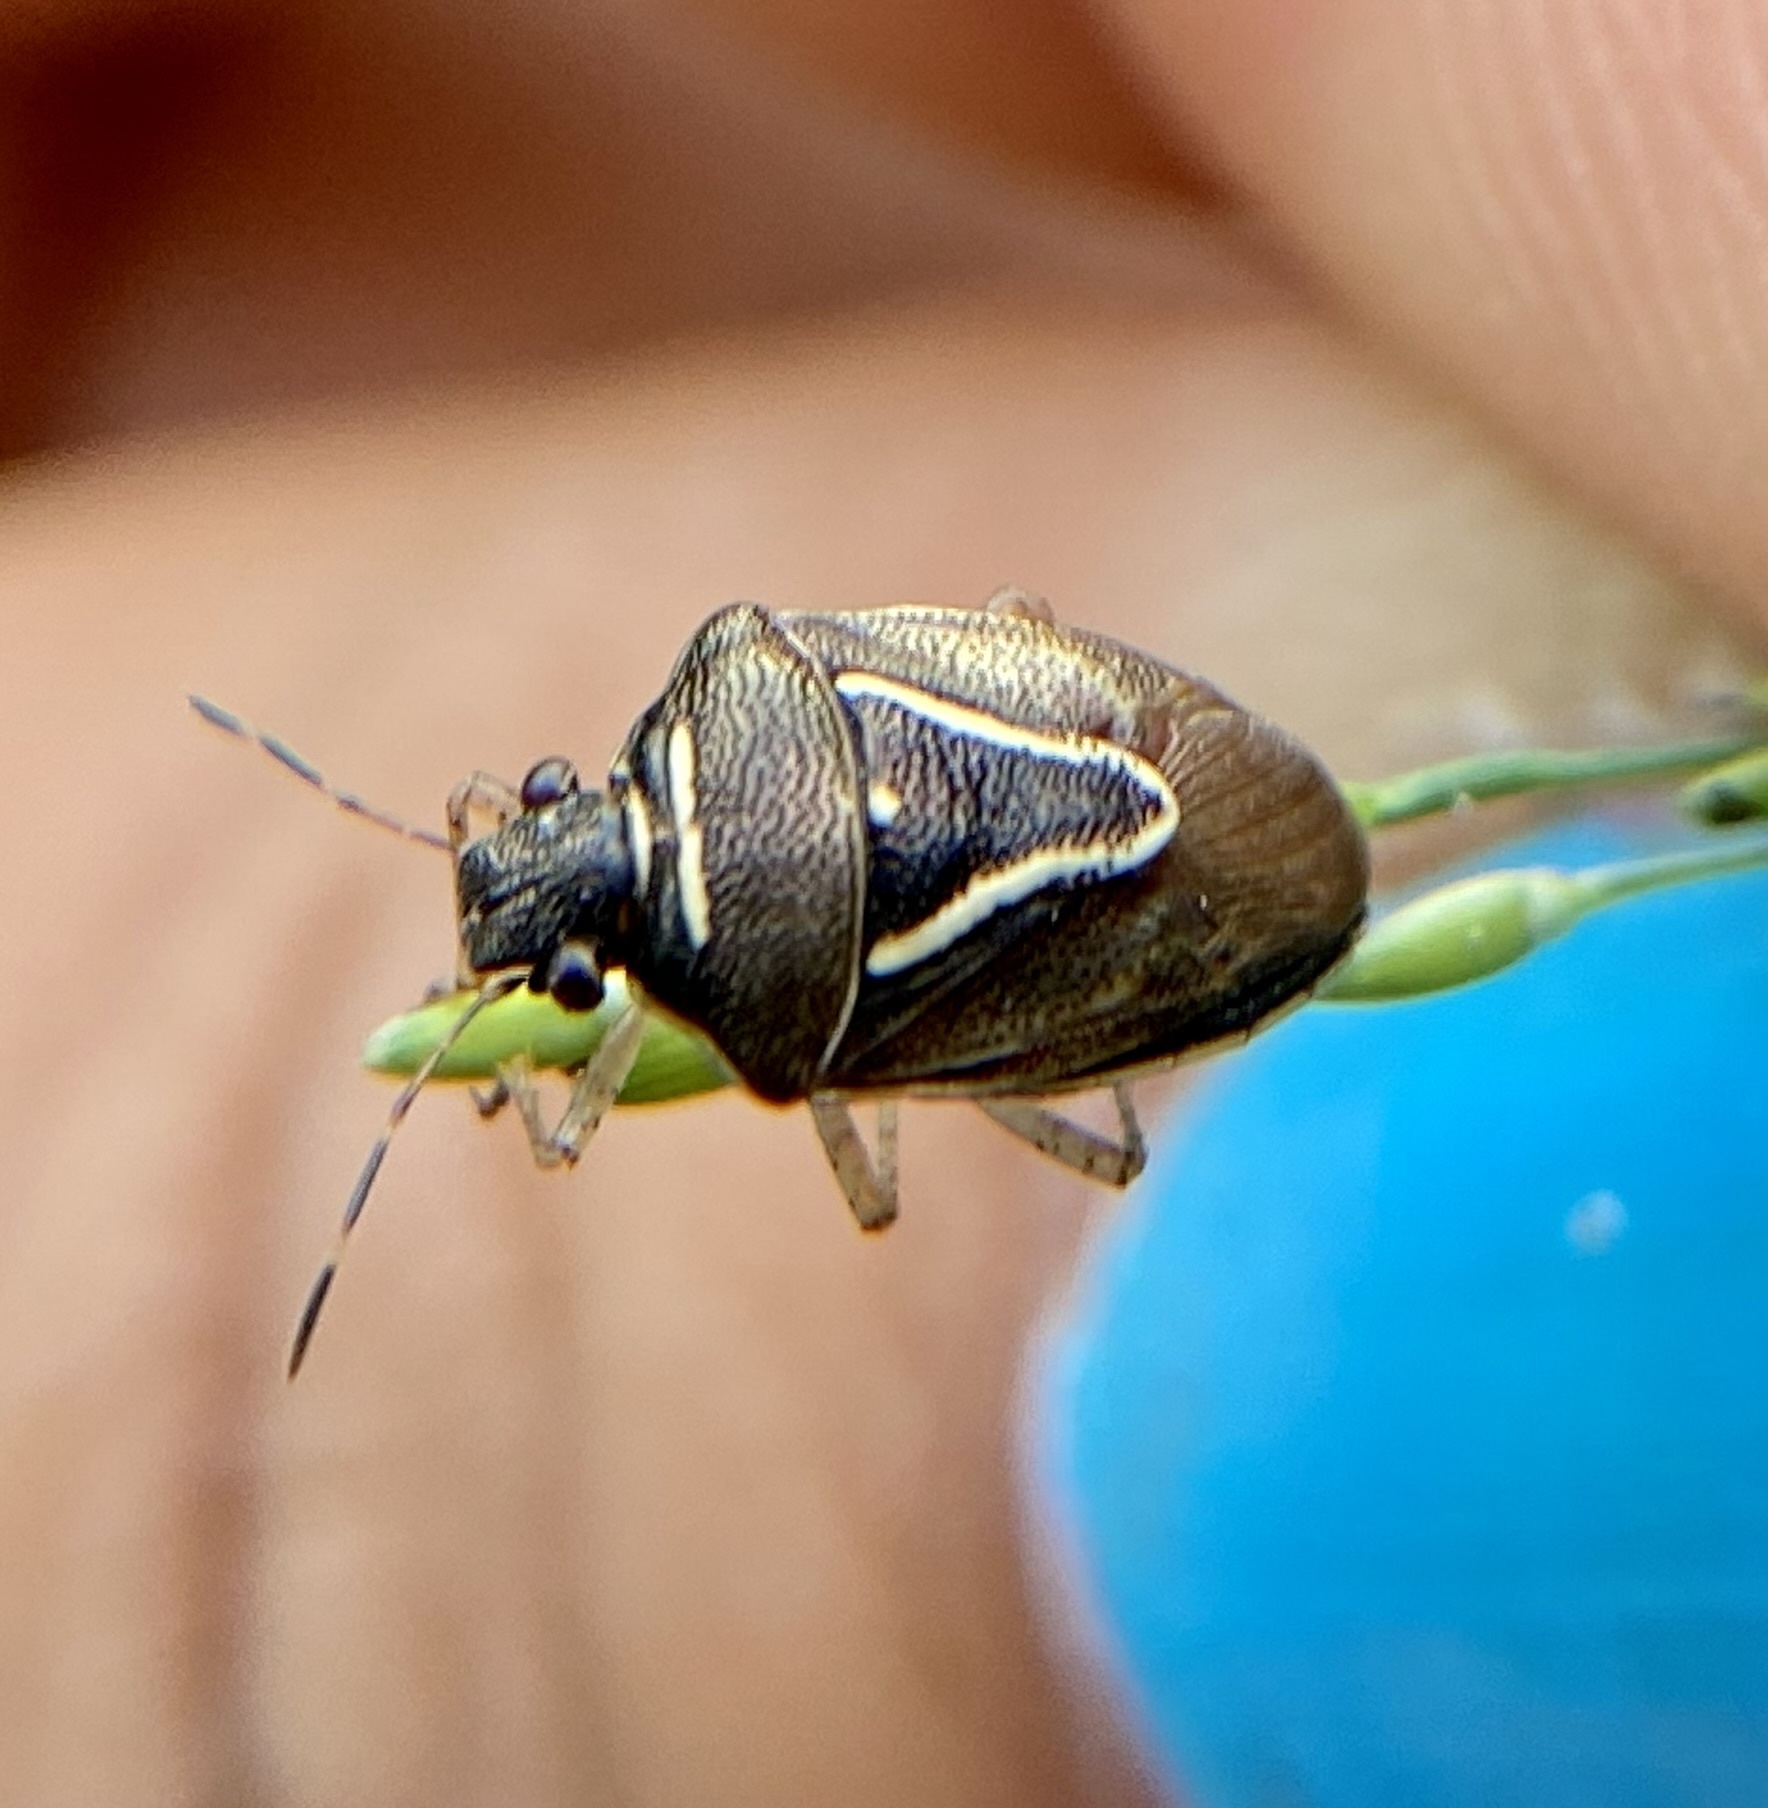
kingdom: Animalia
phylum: Arthropoda
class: Insecta
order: Hemiptera
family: Pentatomidae
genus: Mormidea
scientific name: Mormidea lugens
